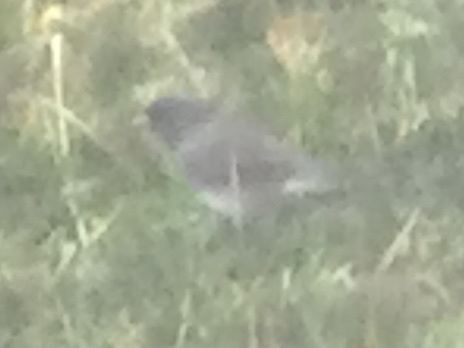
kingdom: Animalia
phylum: Chordata
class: Aves
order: Passeriformes
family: Passerellidae
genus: Junco
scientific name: Junco hyemalis
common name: Dark-eyed junco
